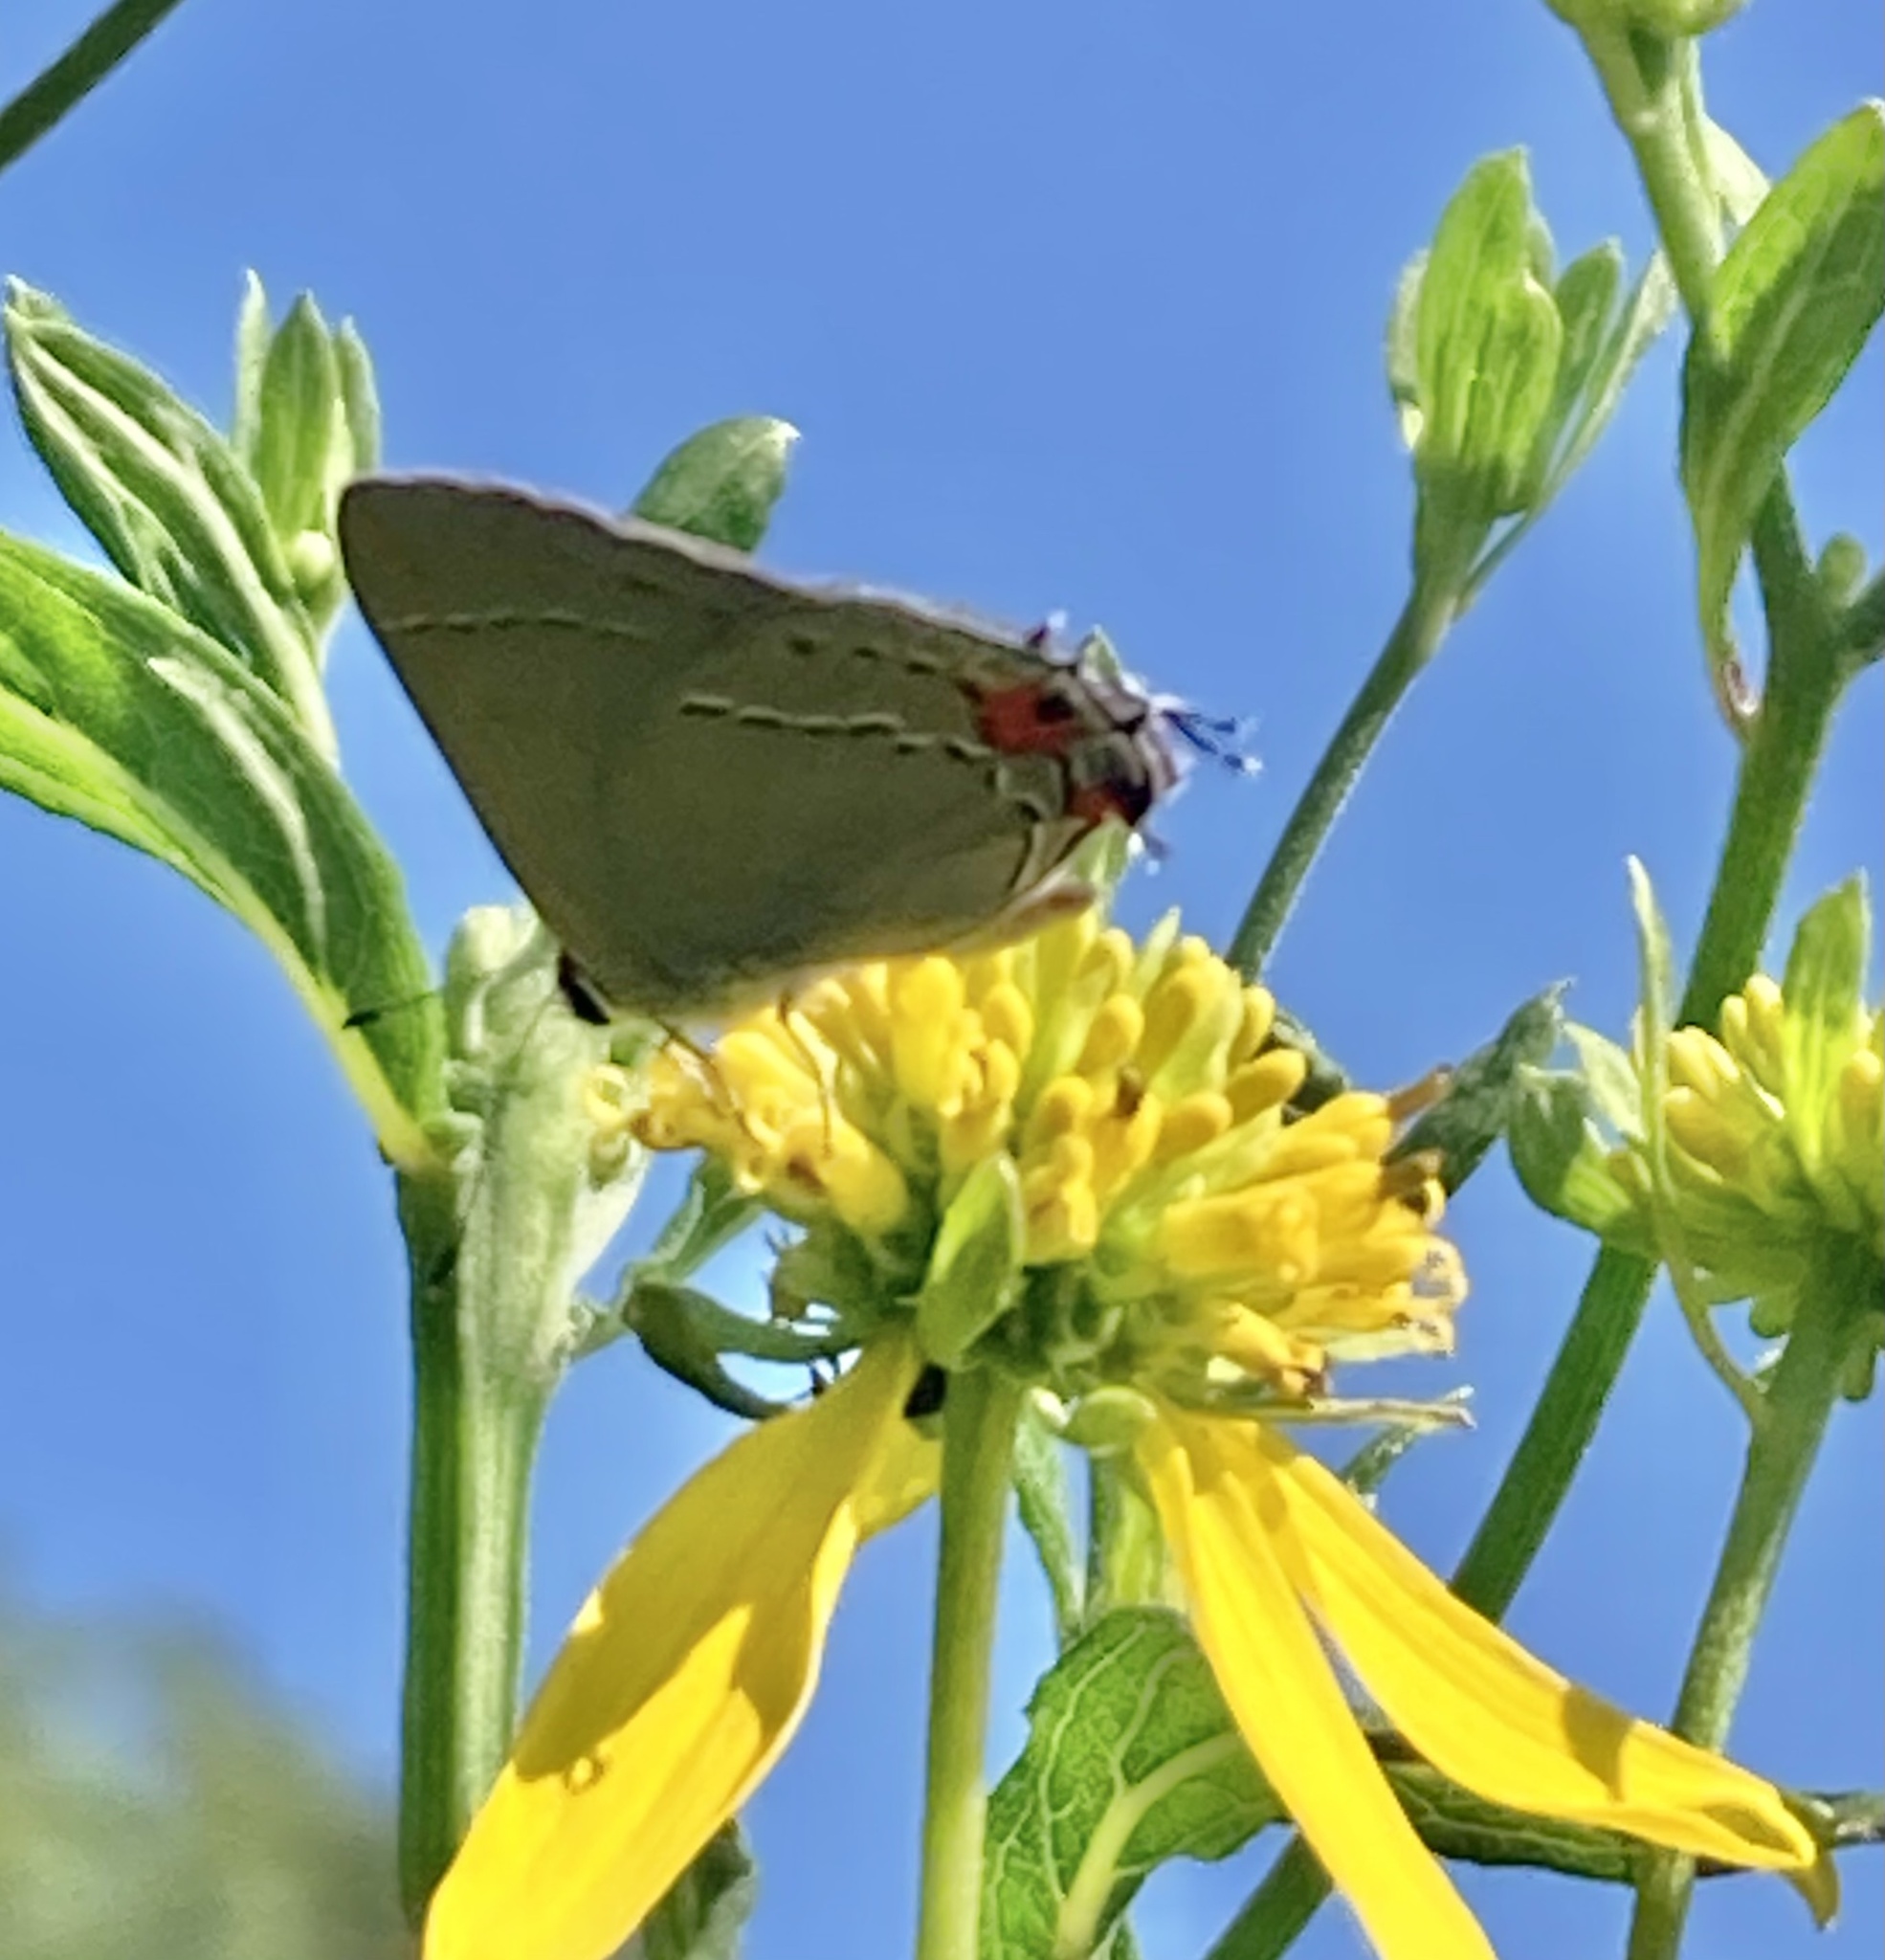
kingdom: Animalia
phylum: Arthropoda
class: Insecta
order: Lepidoptera
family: Lycaenidae
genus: Strymon
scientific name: Strymon melinus
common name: Gray hairstreak
